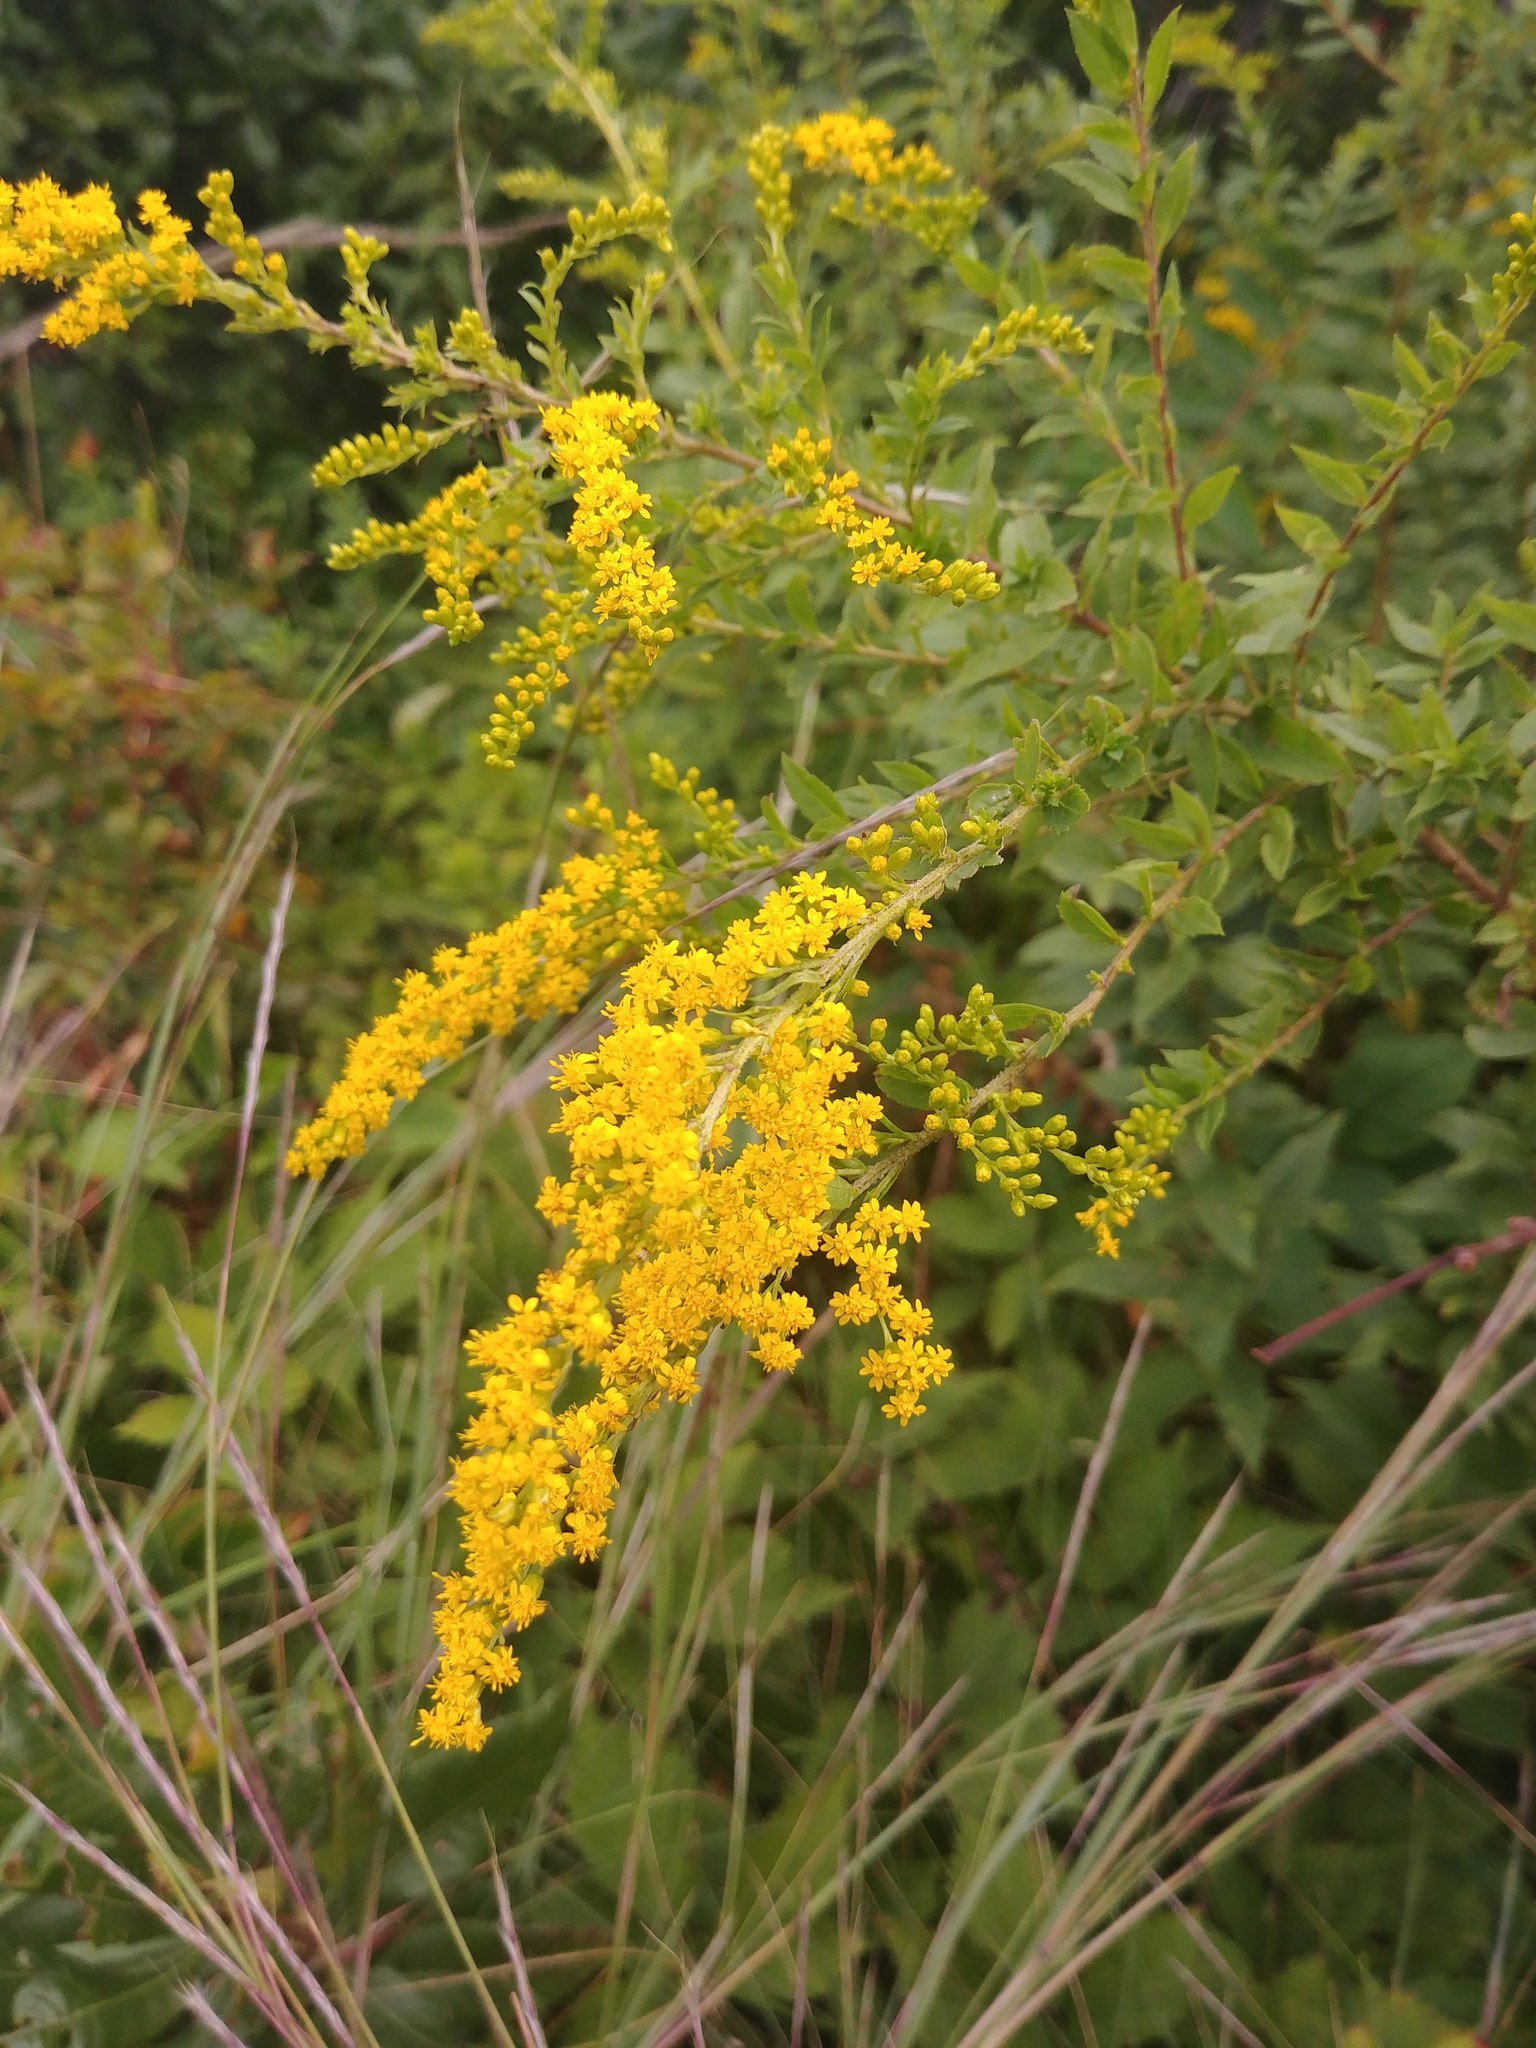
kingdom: Plantae
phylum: Tracheophyta
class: Magnoliopsida
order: Asterales
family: Asteraceae
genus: Solidago
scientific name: Solidago rugosa
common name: Rough-stemmed goldenrod
